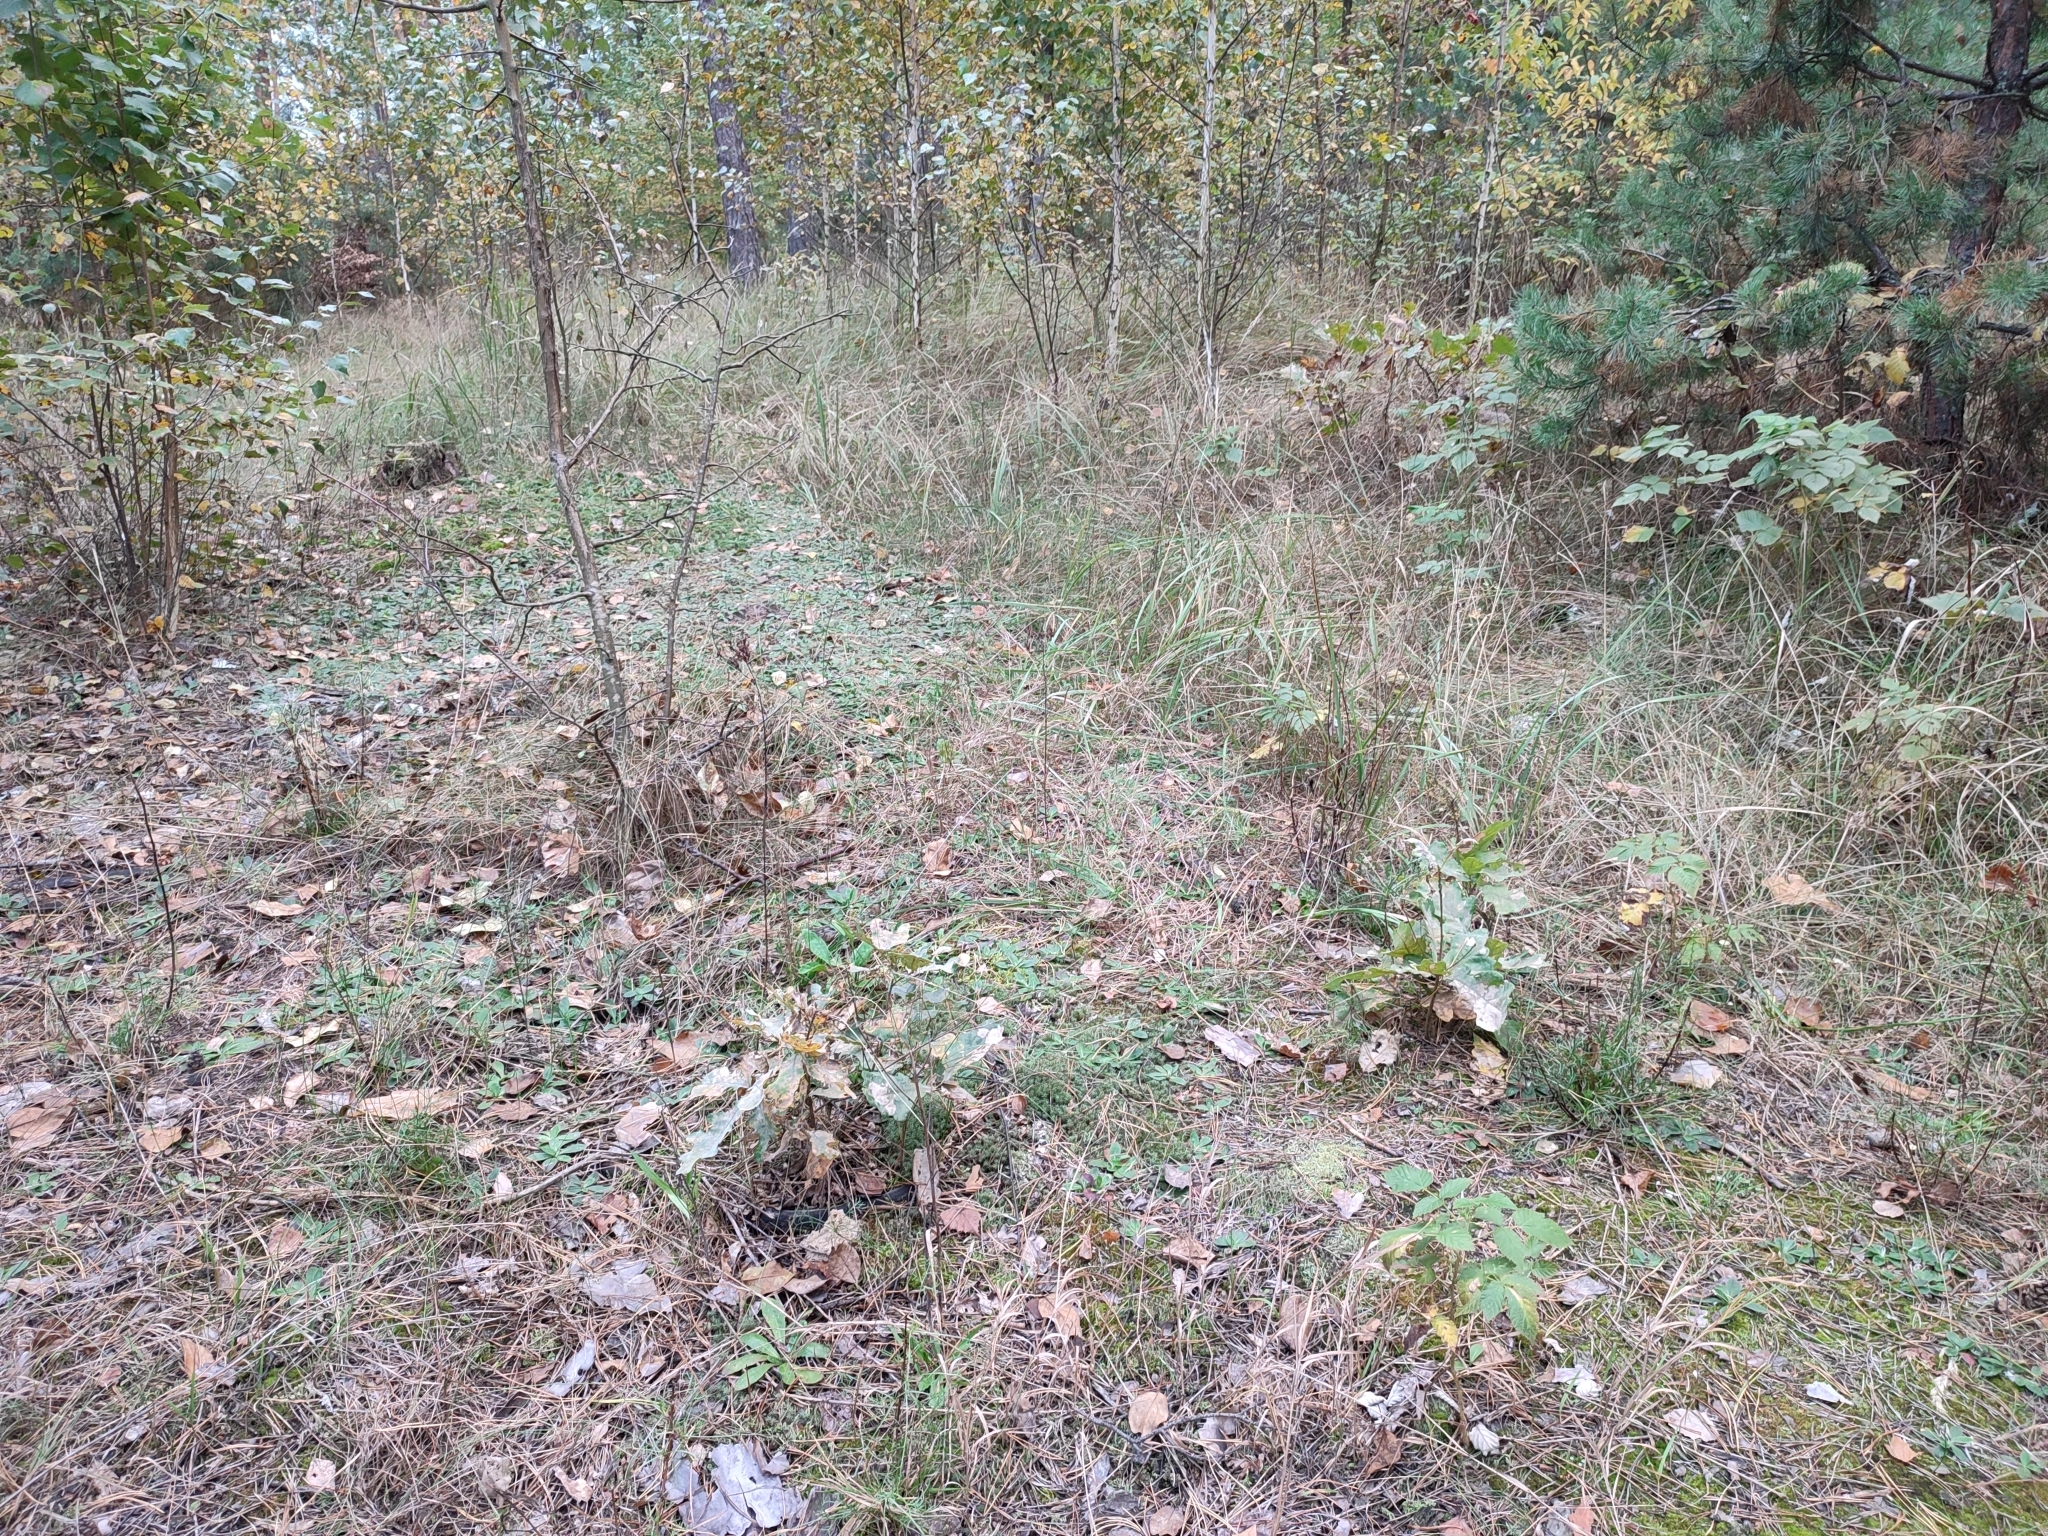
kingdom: Plantae
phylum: Tracheophyta
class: Magnoliopsida
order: Fagales
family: Fagaceae
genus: Quercus
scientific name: Quercus robur
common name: Pedunculate oak
